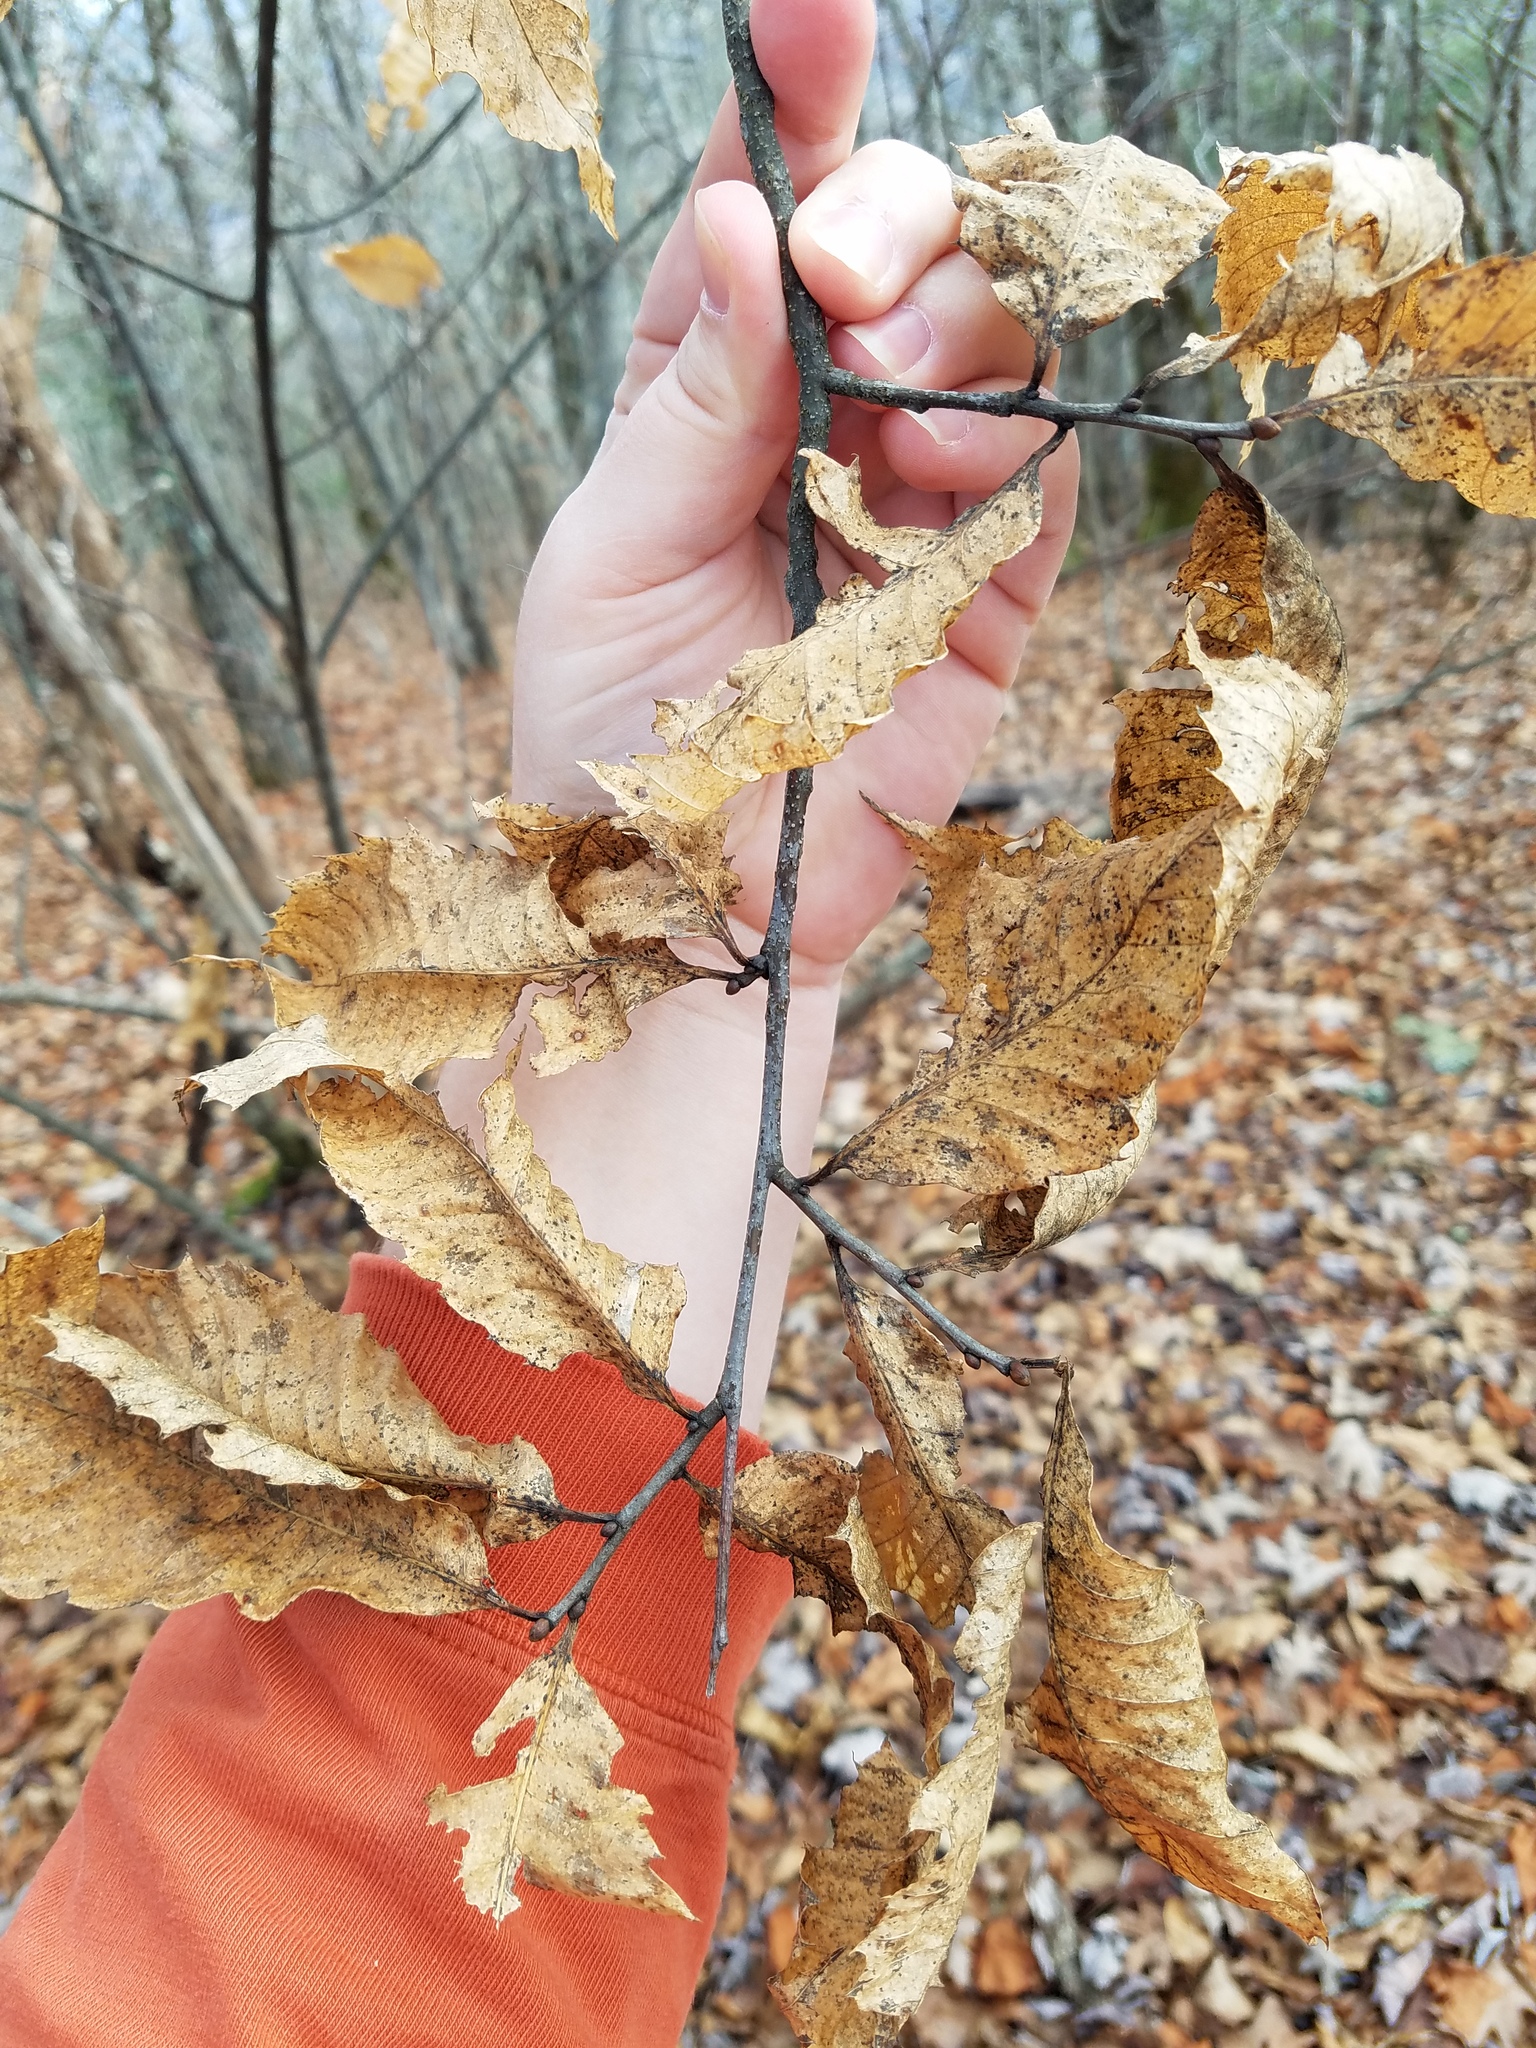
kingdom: Plantae
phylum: Tracheophyta
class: Magnoliopsida
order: Fagales
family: Fagaceae
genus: Castanea
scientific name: Castanea dentata
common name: American chestnut
